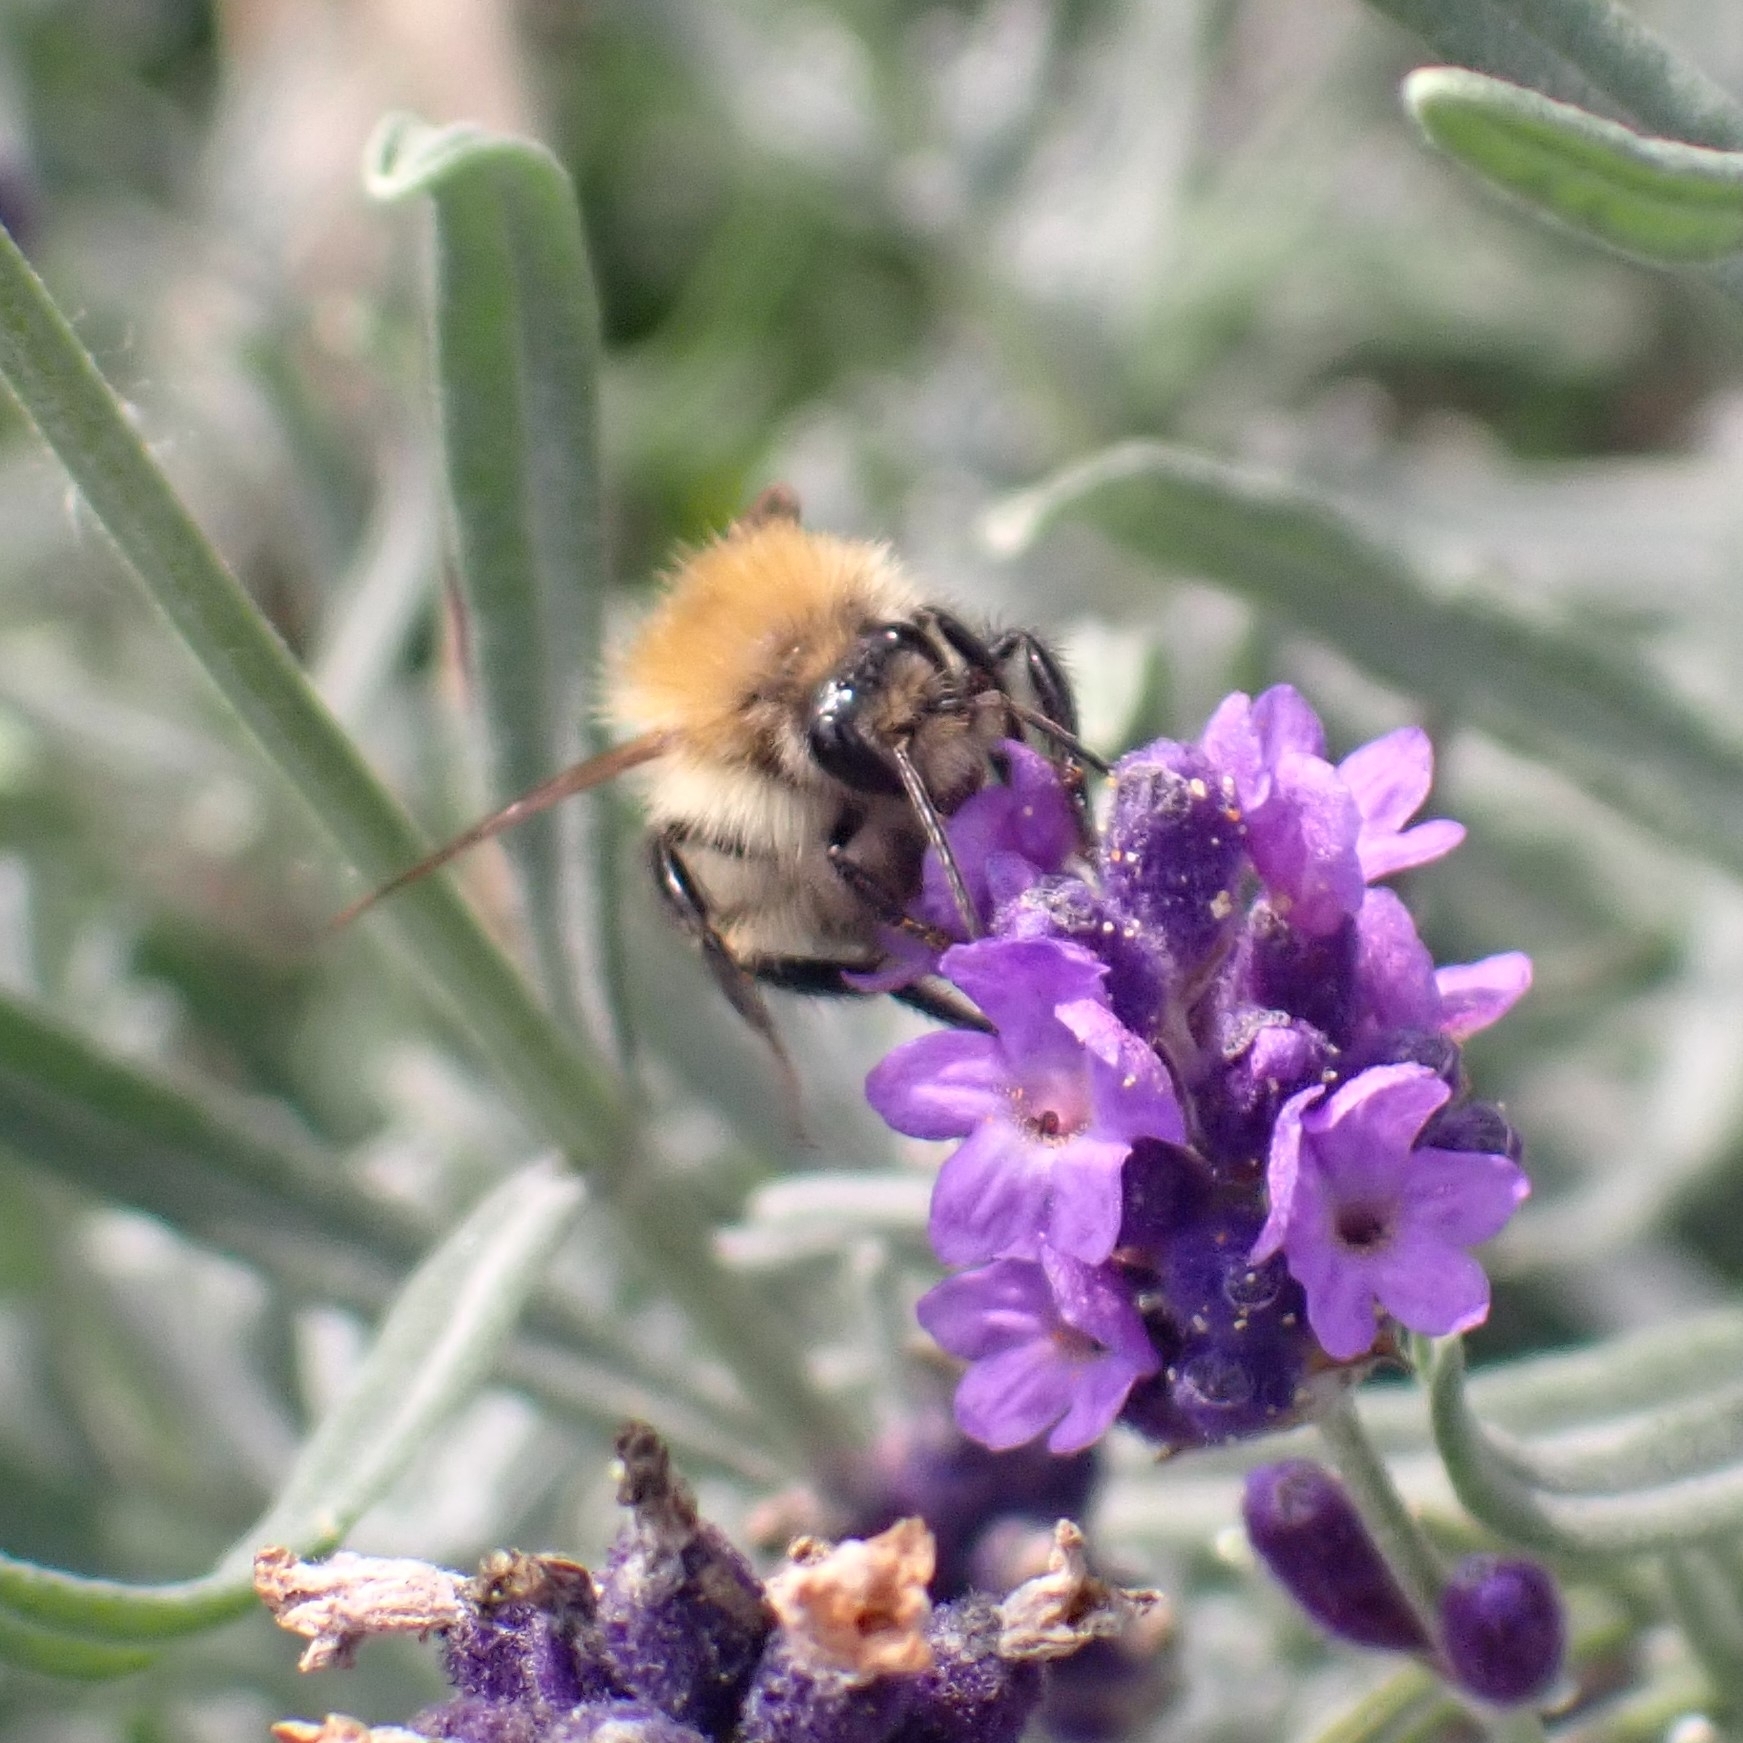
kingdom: Animalia
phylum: Arthropoda
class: Insecta
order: Hymenoptera
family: Apidae
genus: Bombus
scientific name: Bombus pascuorum
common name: Common carder bee
